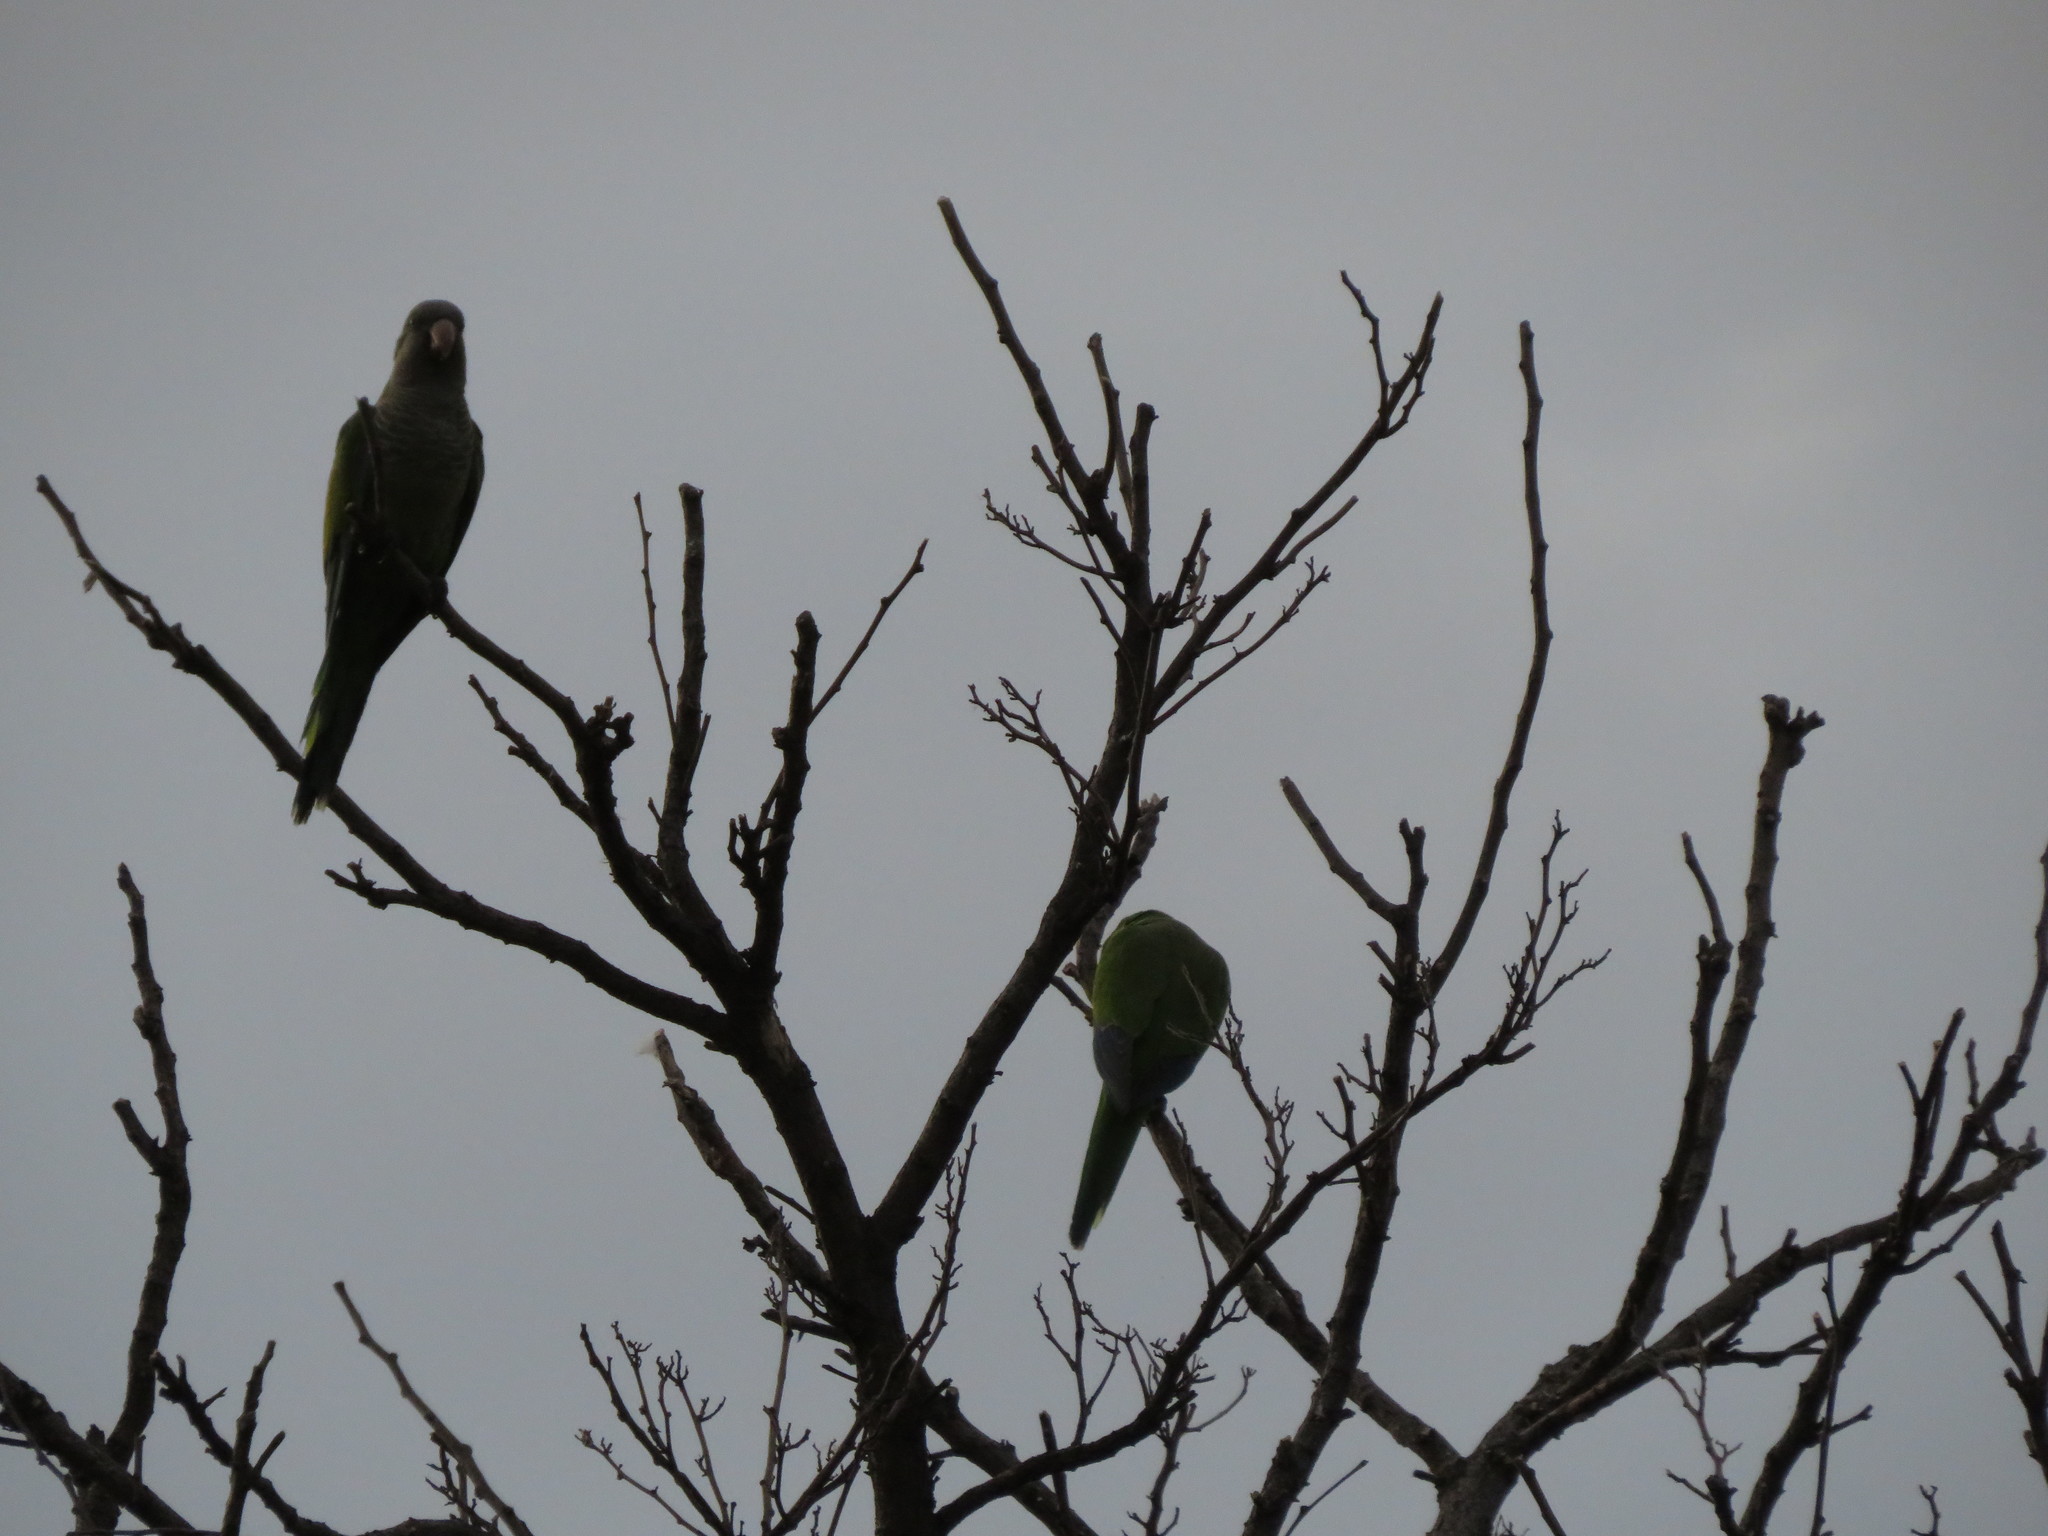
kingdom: Animalia
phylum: Chordata
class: Aves
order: Psittaciformes
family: Psittacidae
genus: Myiopsitta
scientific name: Myiopsitta monachus
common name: Monk parakeet
